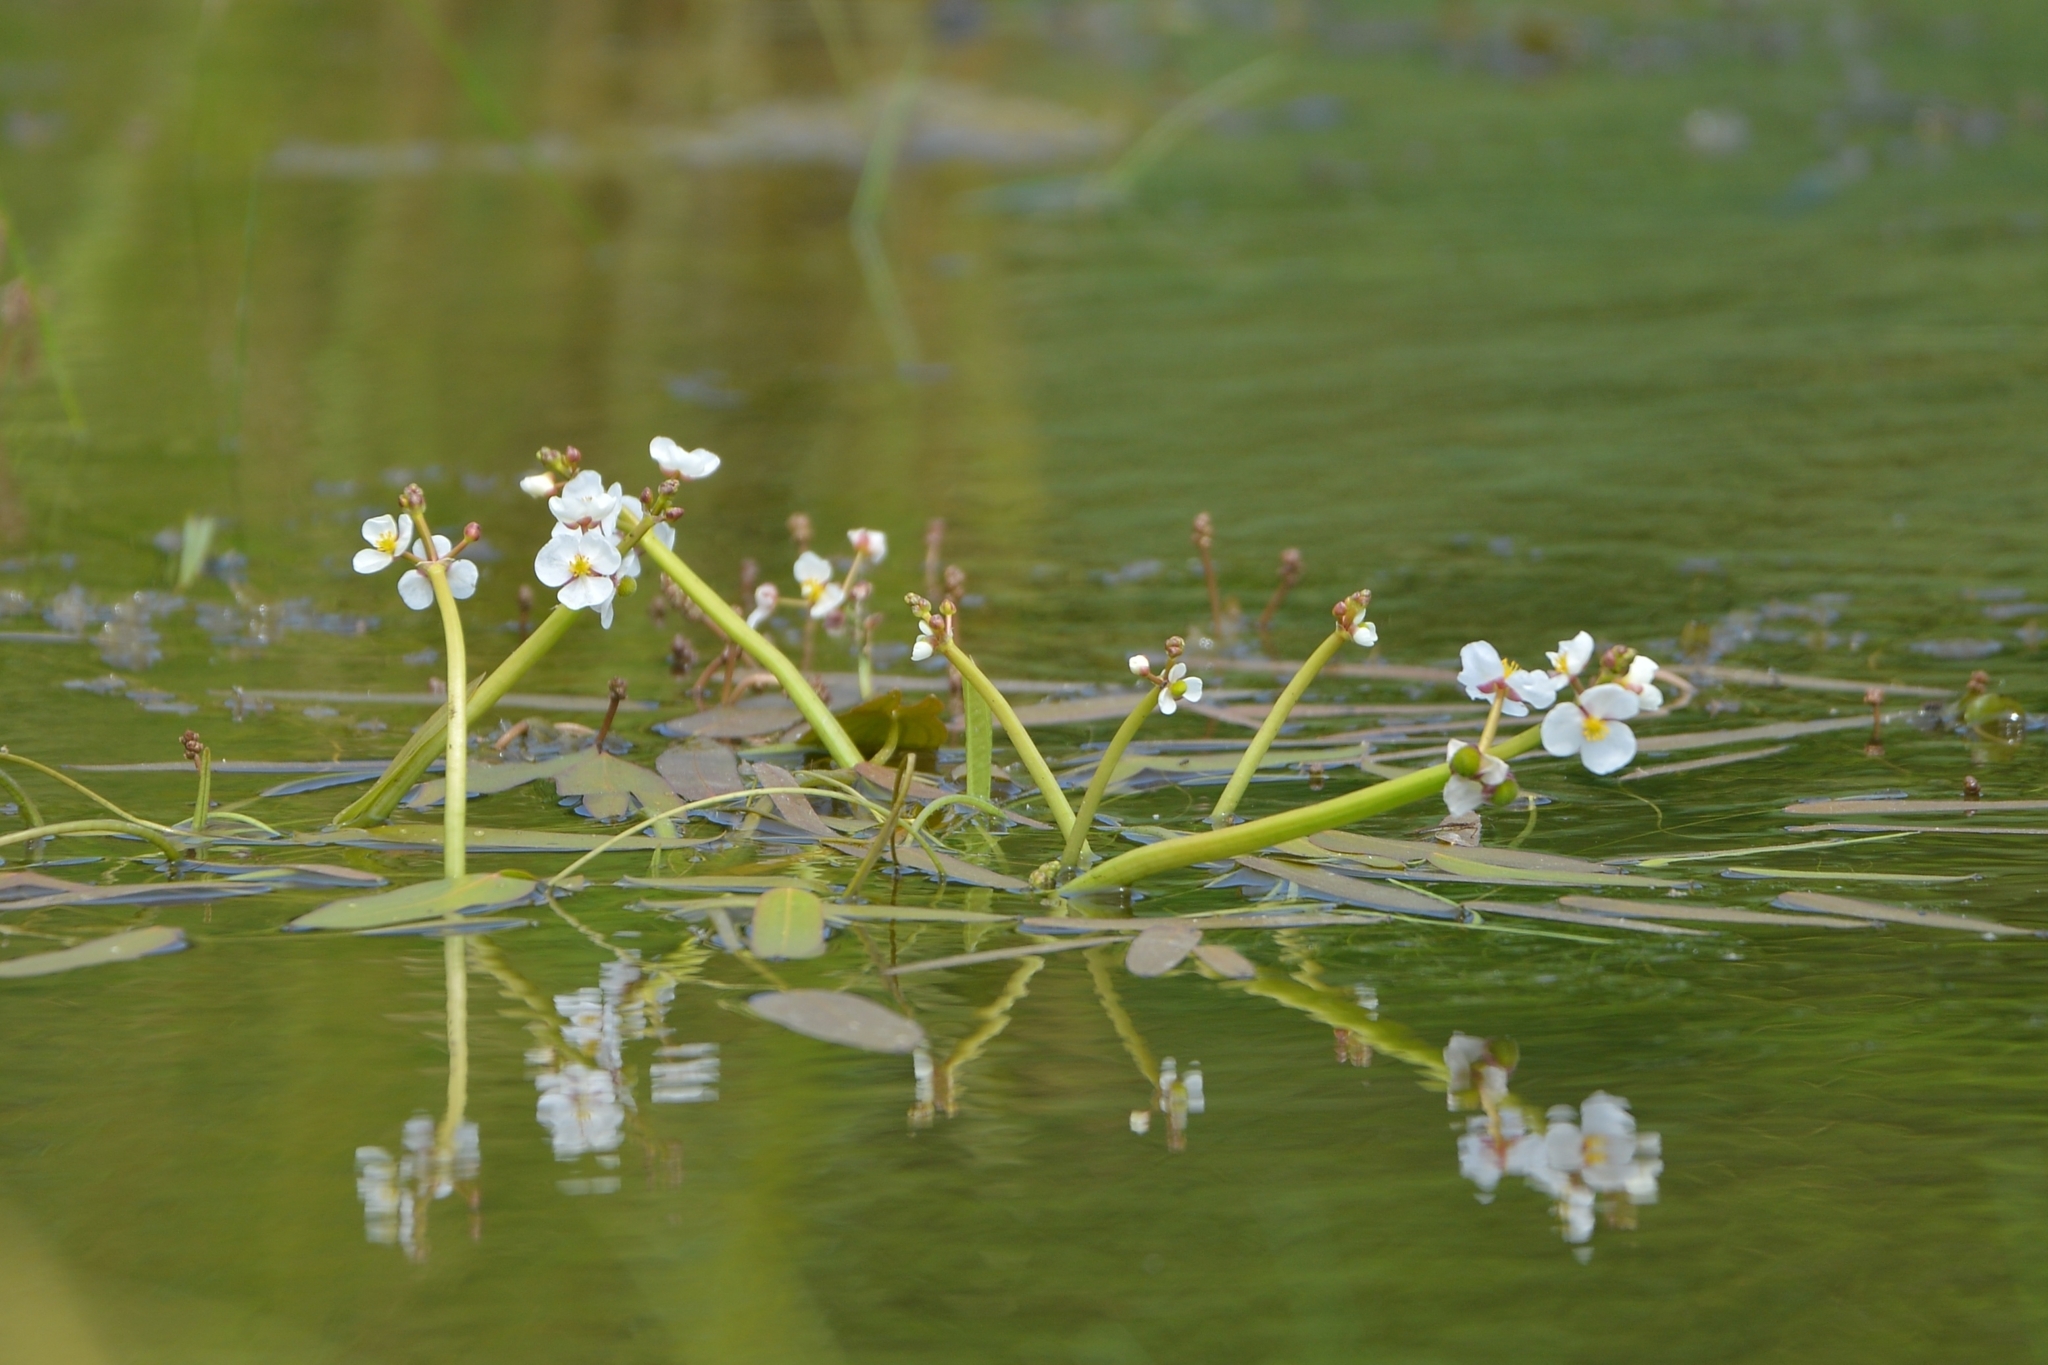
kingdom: Plantae
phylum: Tracheophyta
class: Liliopsida
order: Alismatales
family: Alismataceae
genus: Sagittaria
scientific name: Sagittaria natans
